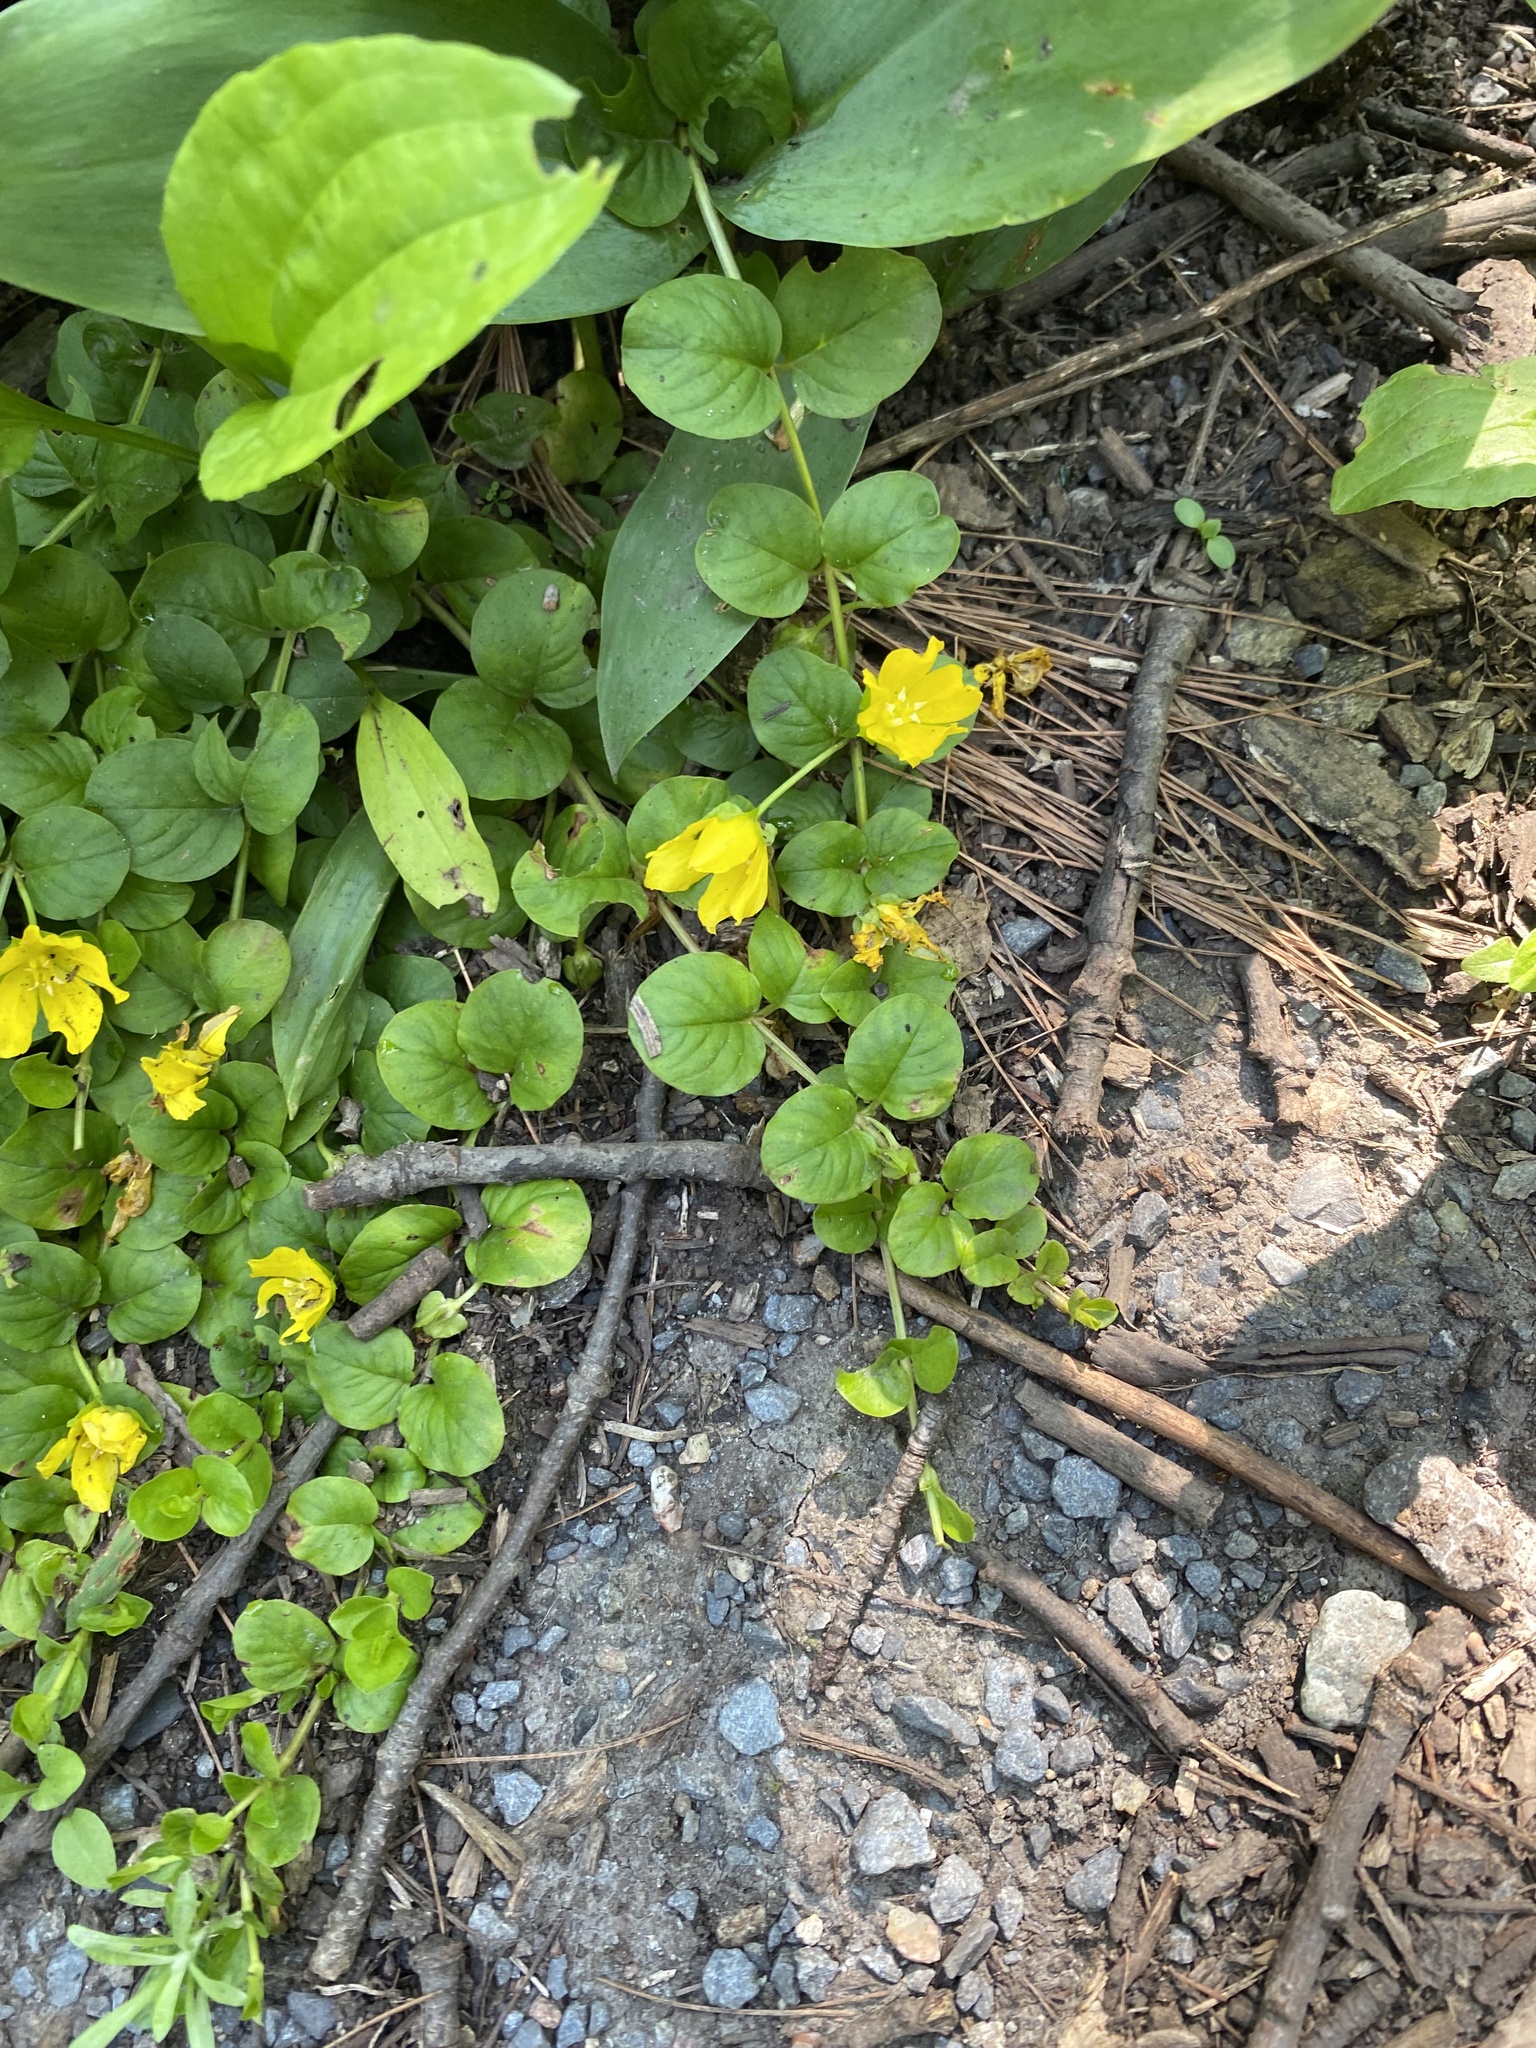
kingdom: Plantae
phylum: Tracheophyta
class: Magnoliopsida
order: Ericales
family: Primulaceae
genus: Lysimachia
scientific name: Lysimachia nummularia
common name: Moneywort
